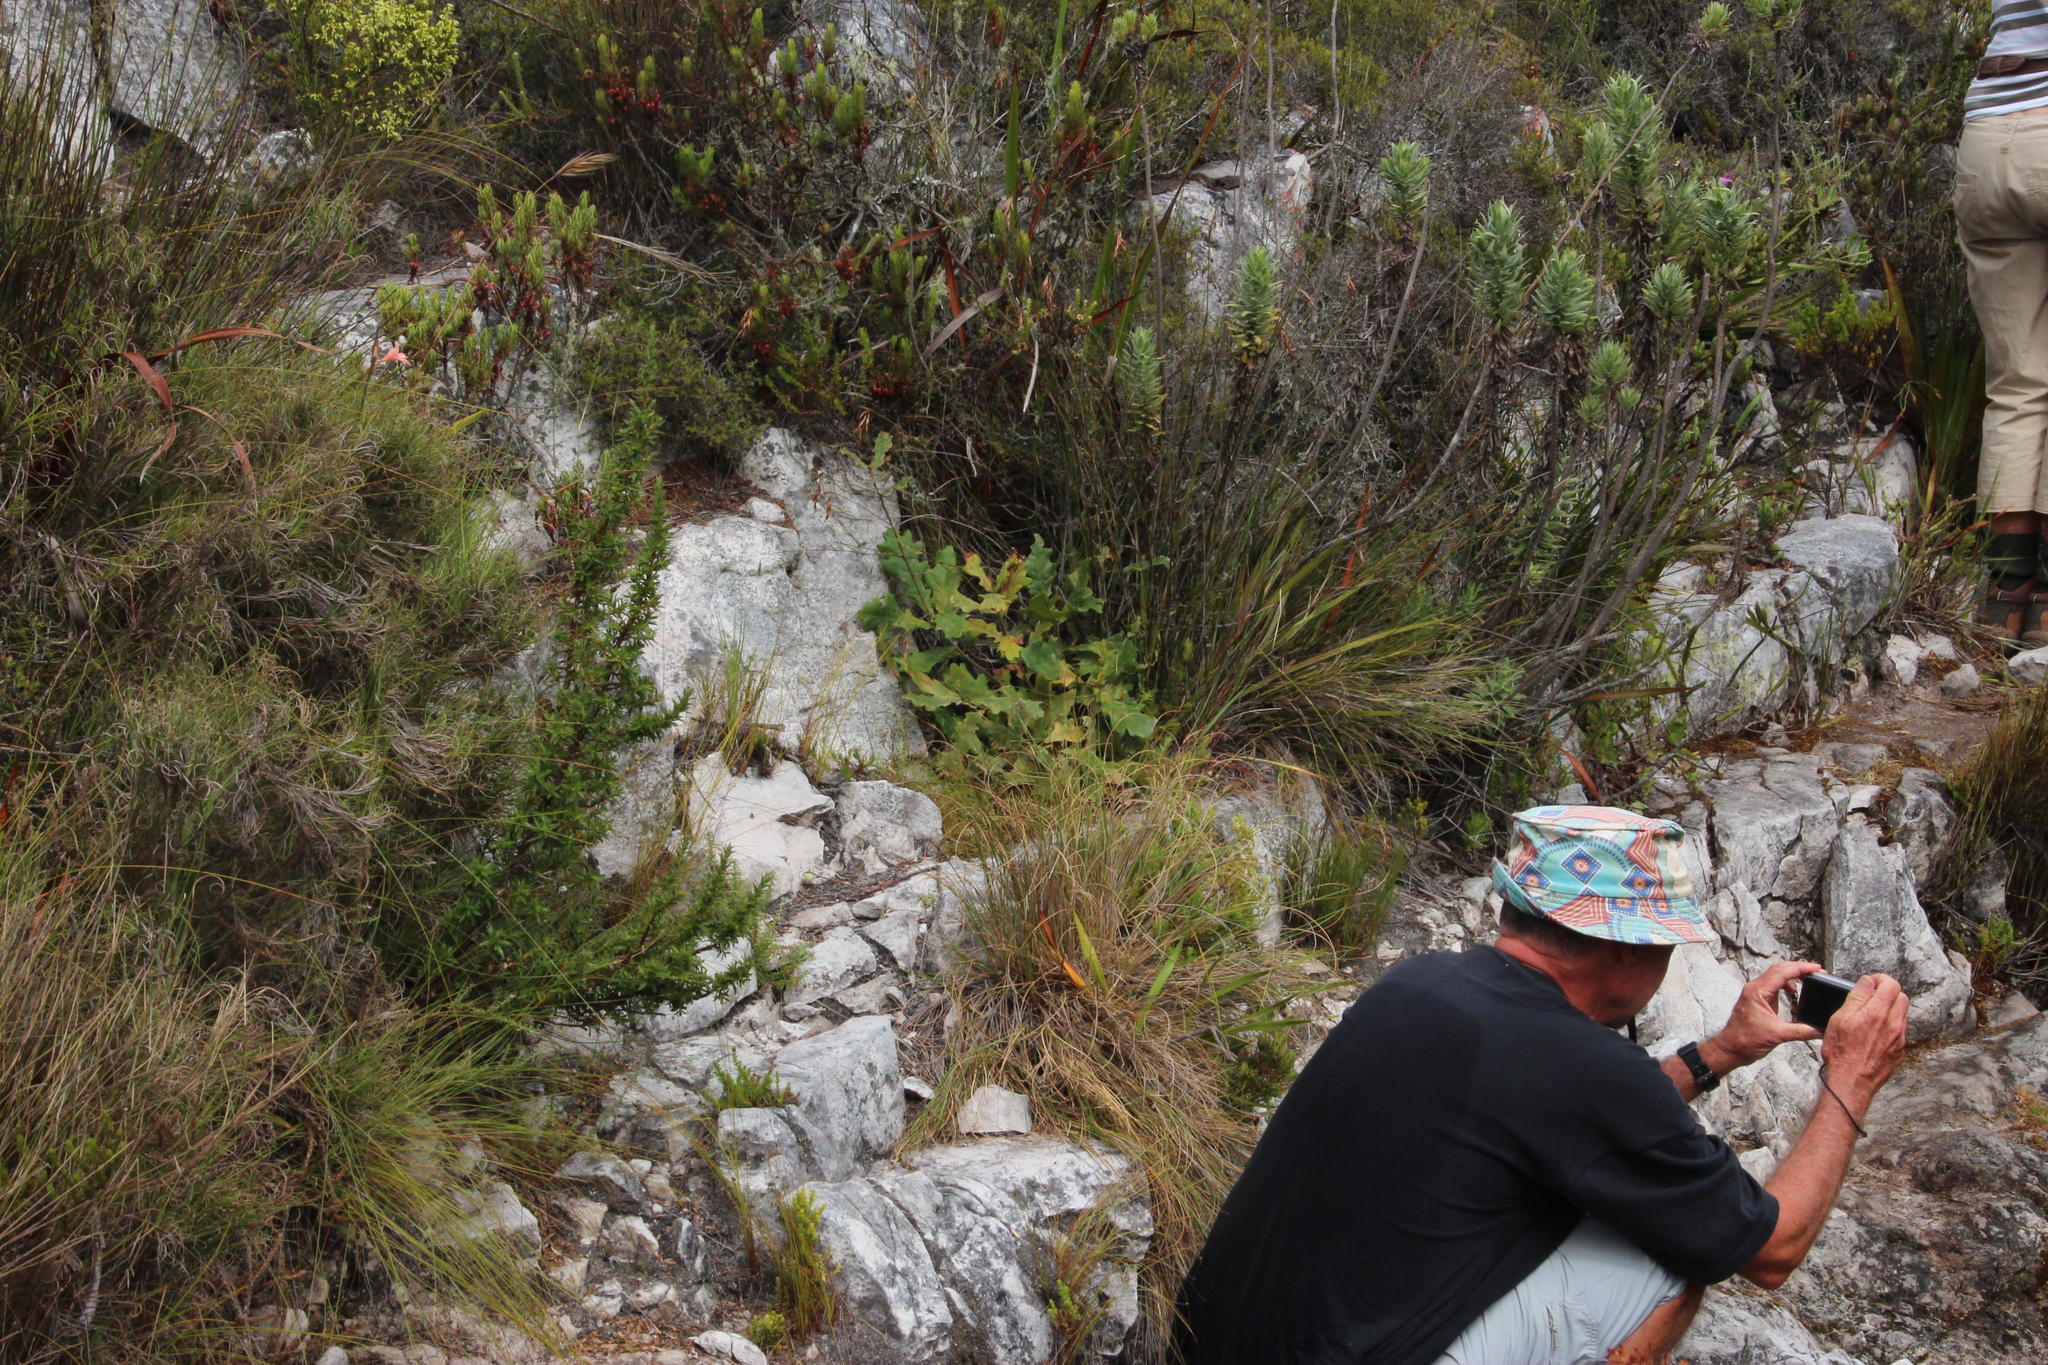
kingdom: Plantae
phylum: Tracheophyta
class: Magnoliopsida
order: Fagales
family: Fagaceae
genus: Quercus
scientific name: Quercus robur
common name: Pedunculate oak
